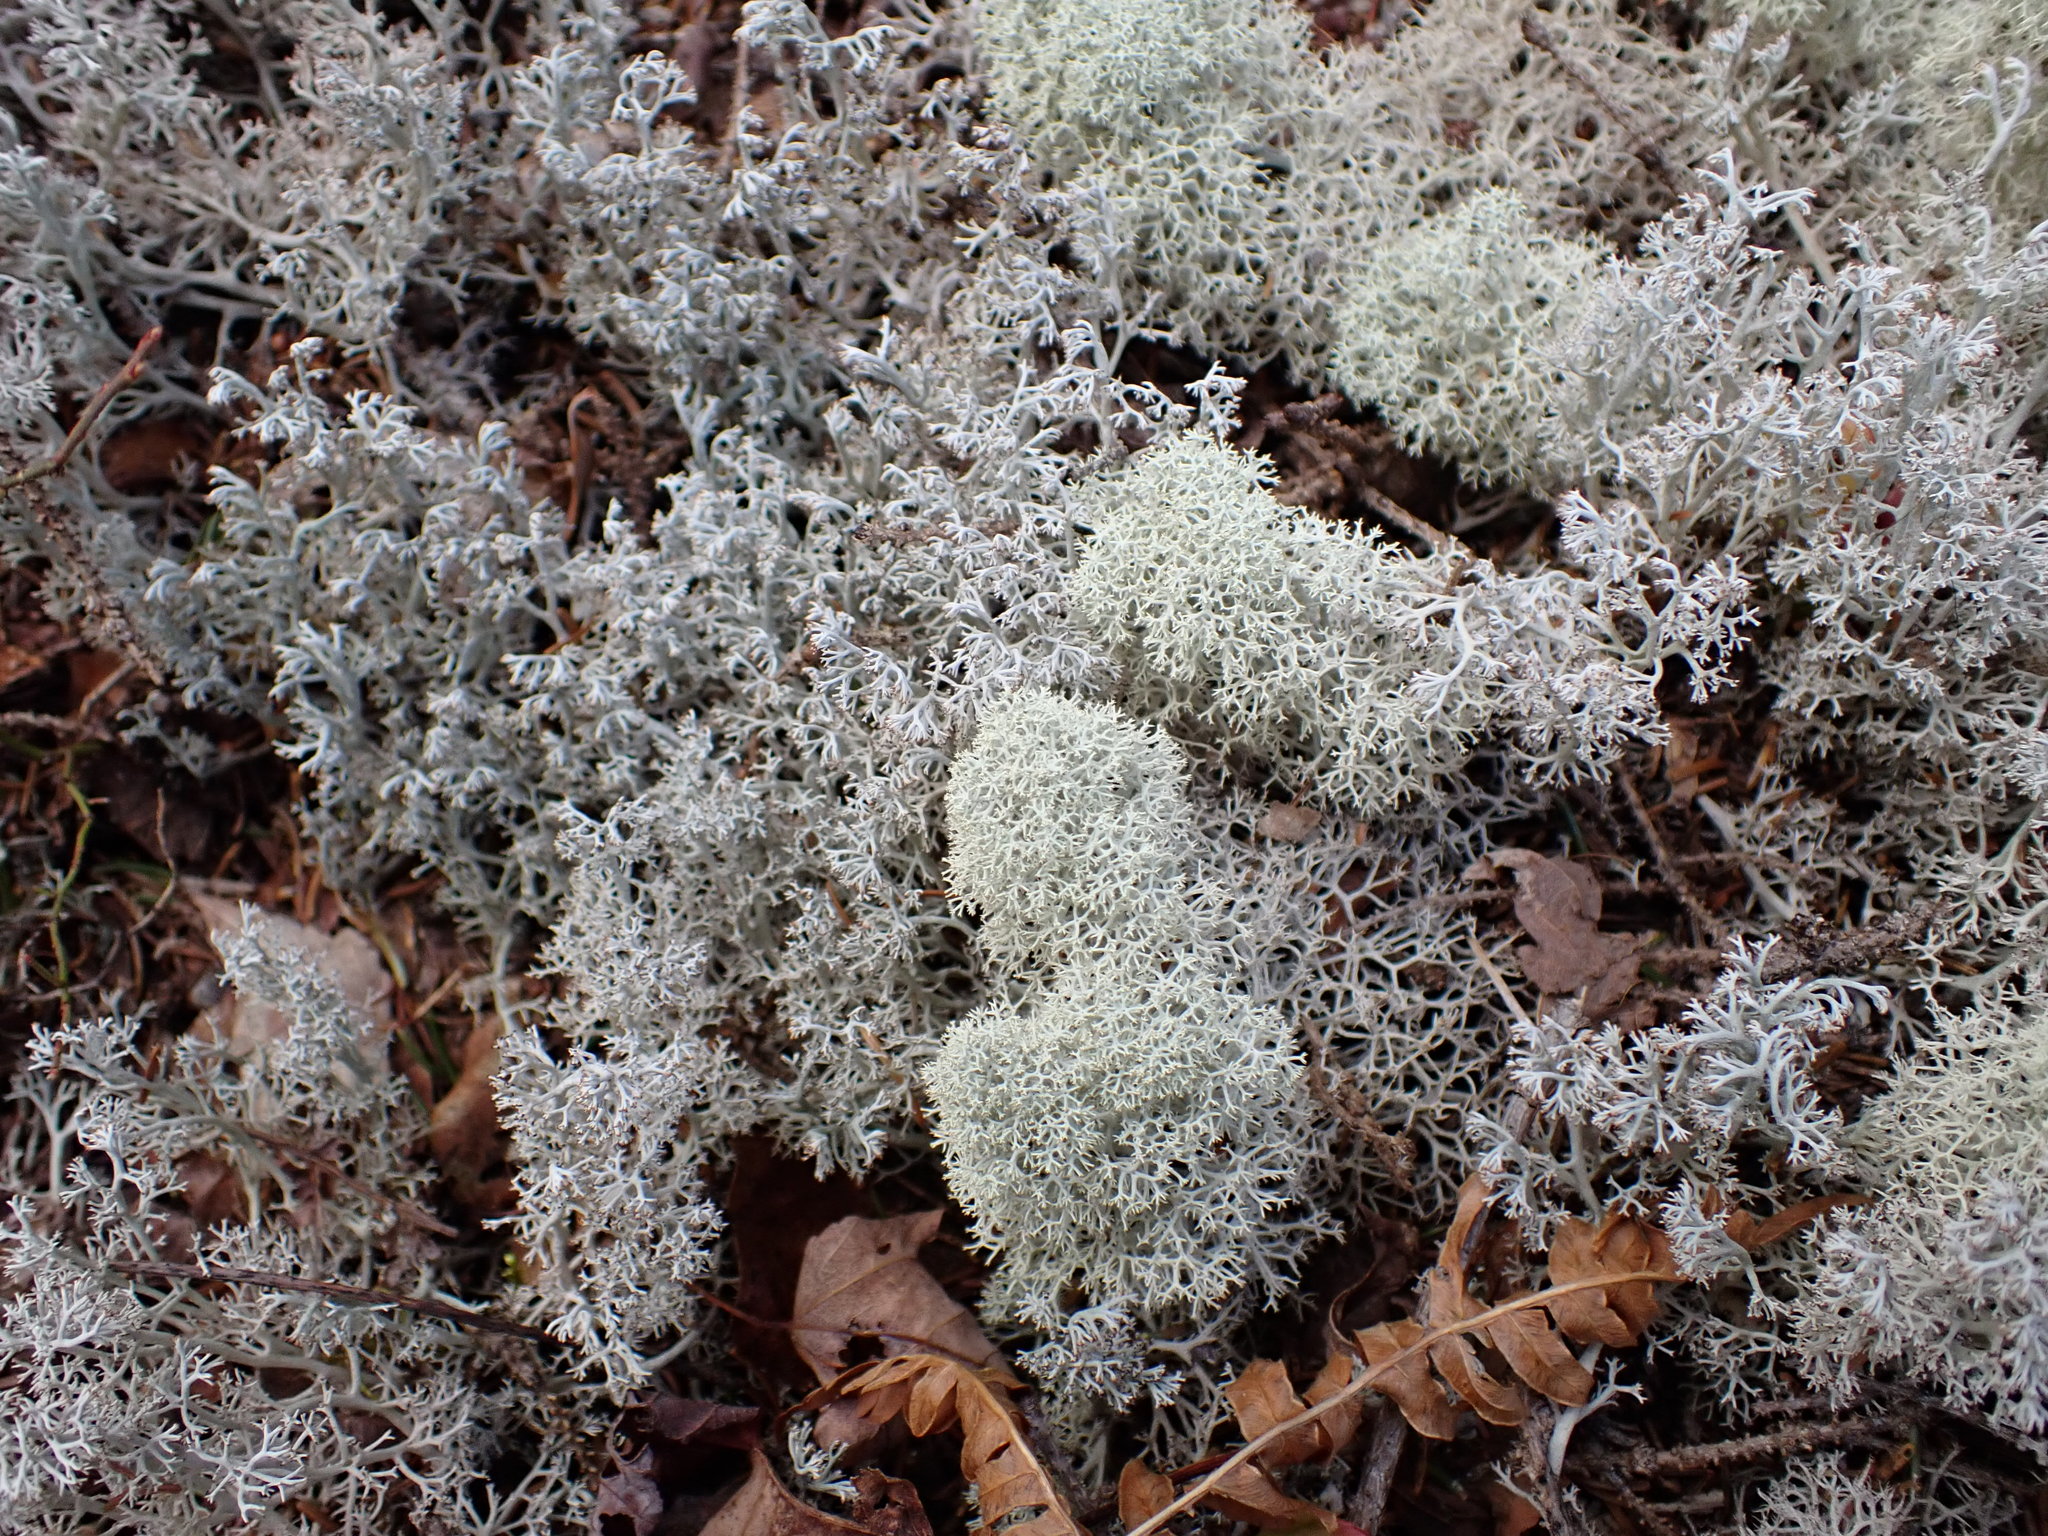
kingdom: Fungi
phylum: Ascomycota
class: Lecanoromycetes
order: Lecanorales
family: Cladoniaceae
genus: Cladonia
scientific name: Cladonia stellaris
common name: Star-tipped reindeer lichen
